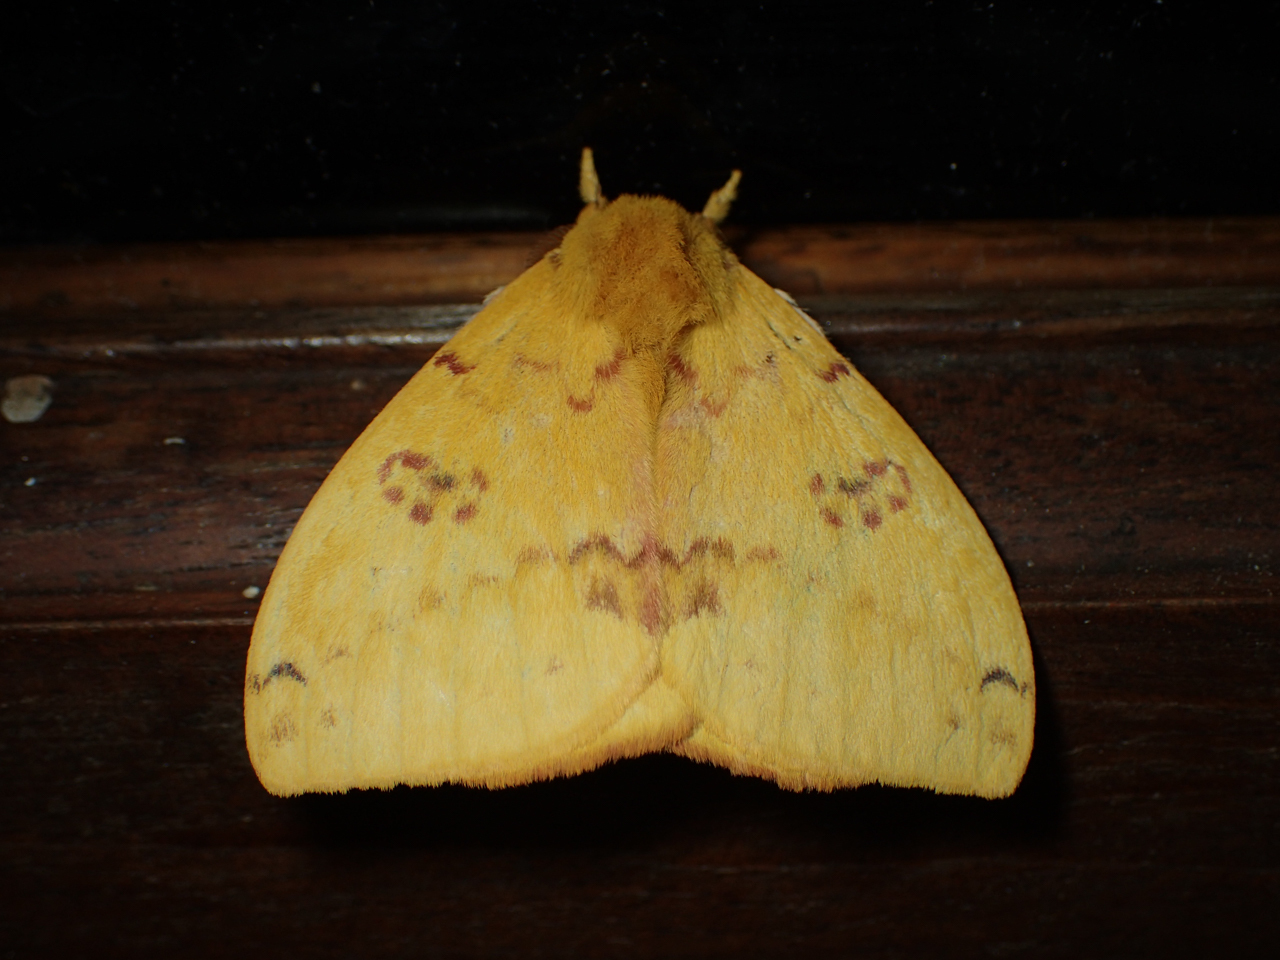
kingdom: Animalia
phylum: Arthropoda
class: Insecta
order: Lepidoptera
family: Saturniidae
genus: Automeris
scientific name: Automeris io
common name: Io moth
